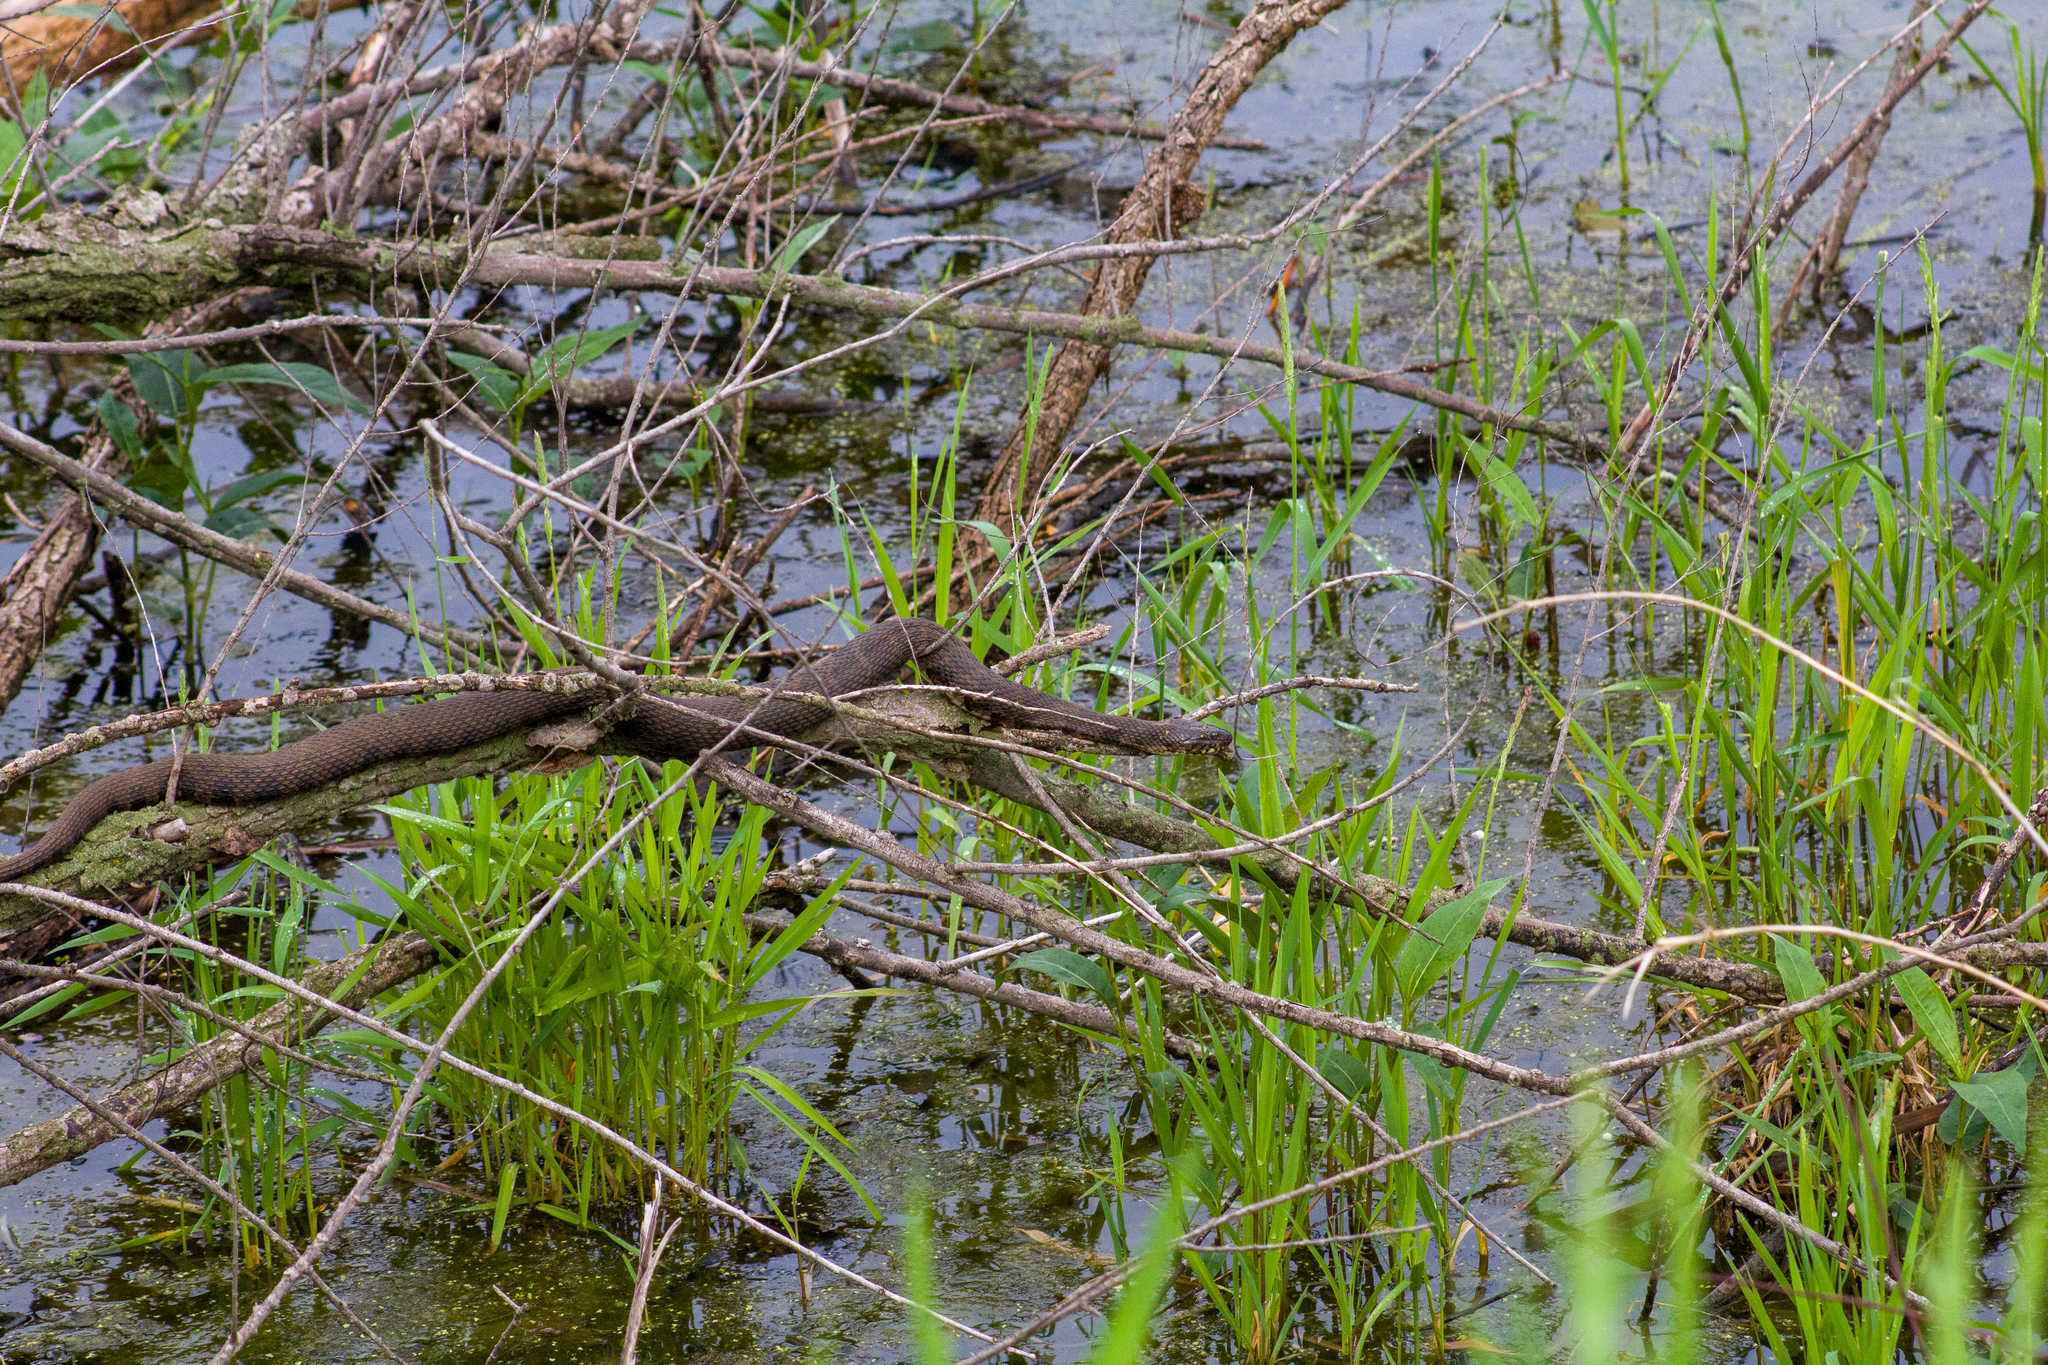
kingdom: Animalia
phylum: Chordata
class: Squamata
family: Colubridae
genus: Nerodia
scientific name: Nerodia sipedon
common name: Northern water snake
